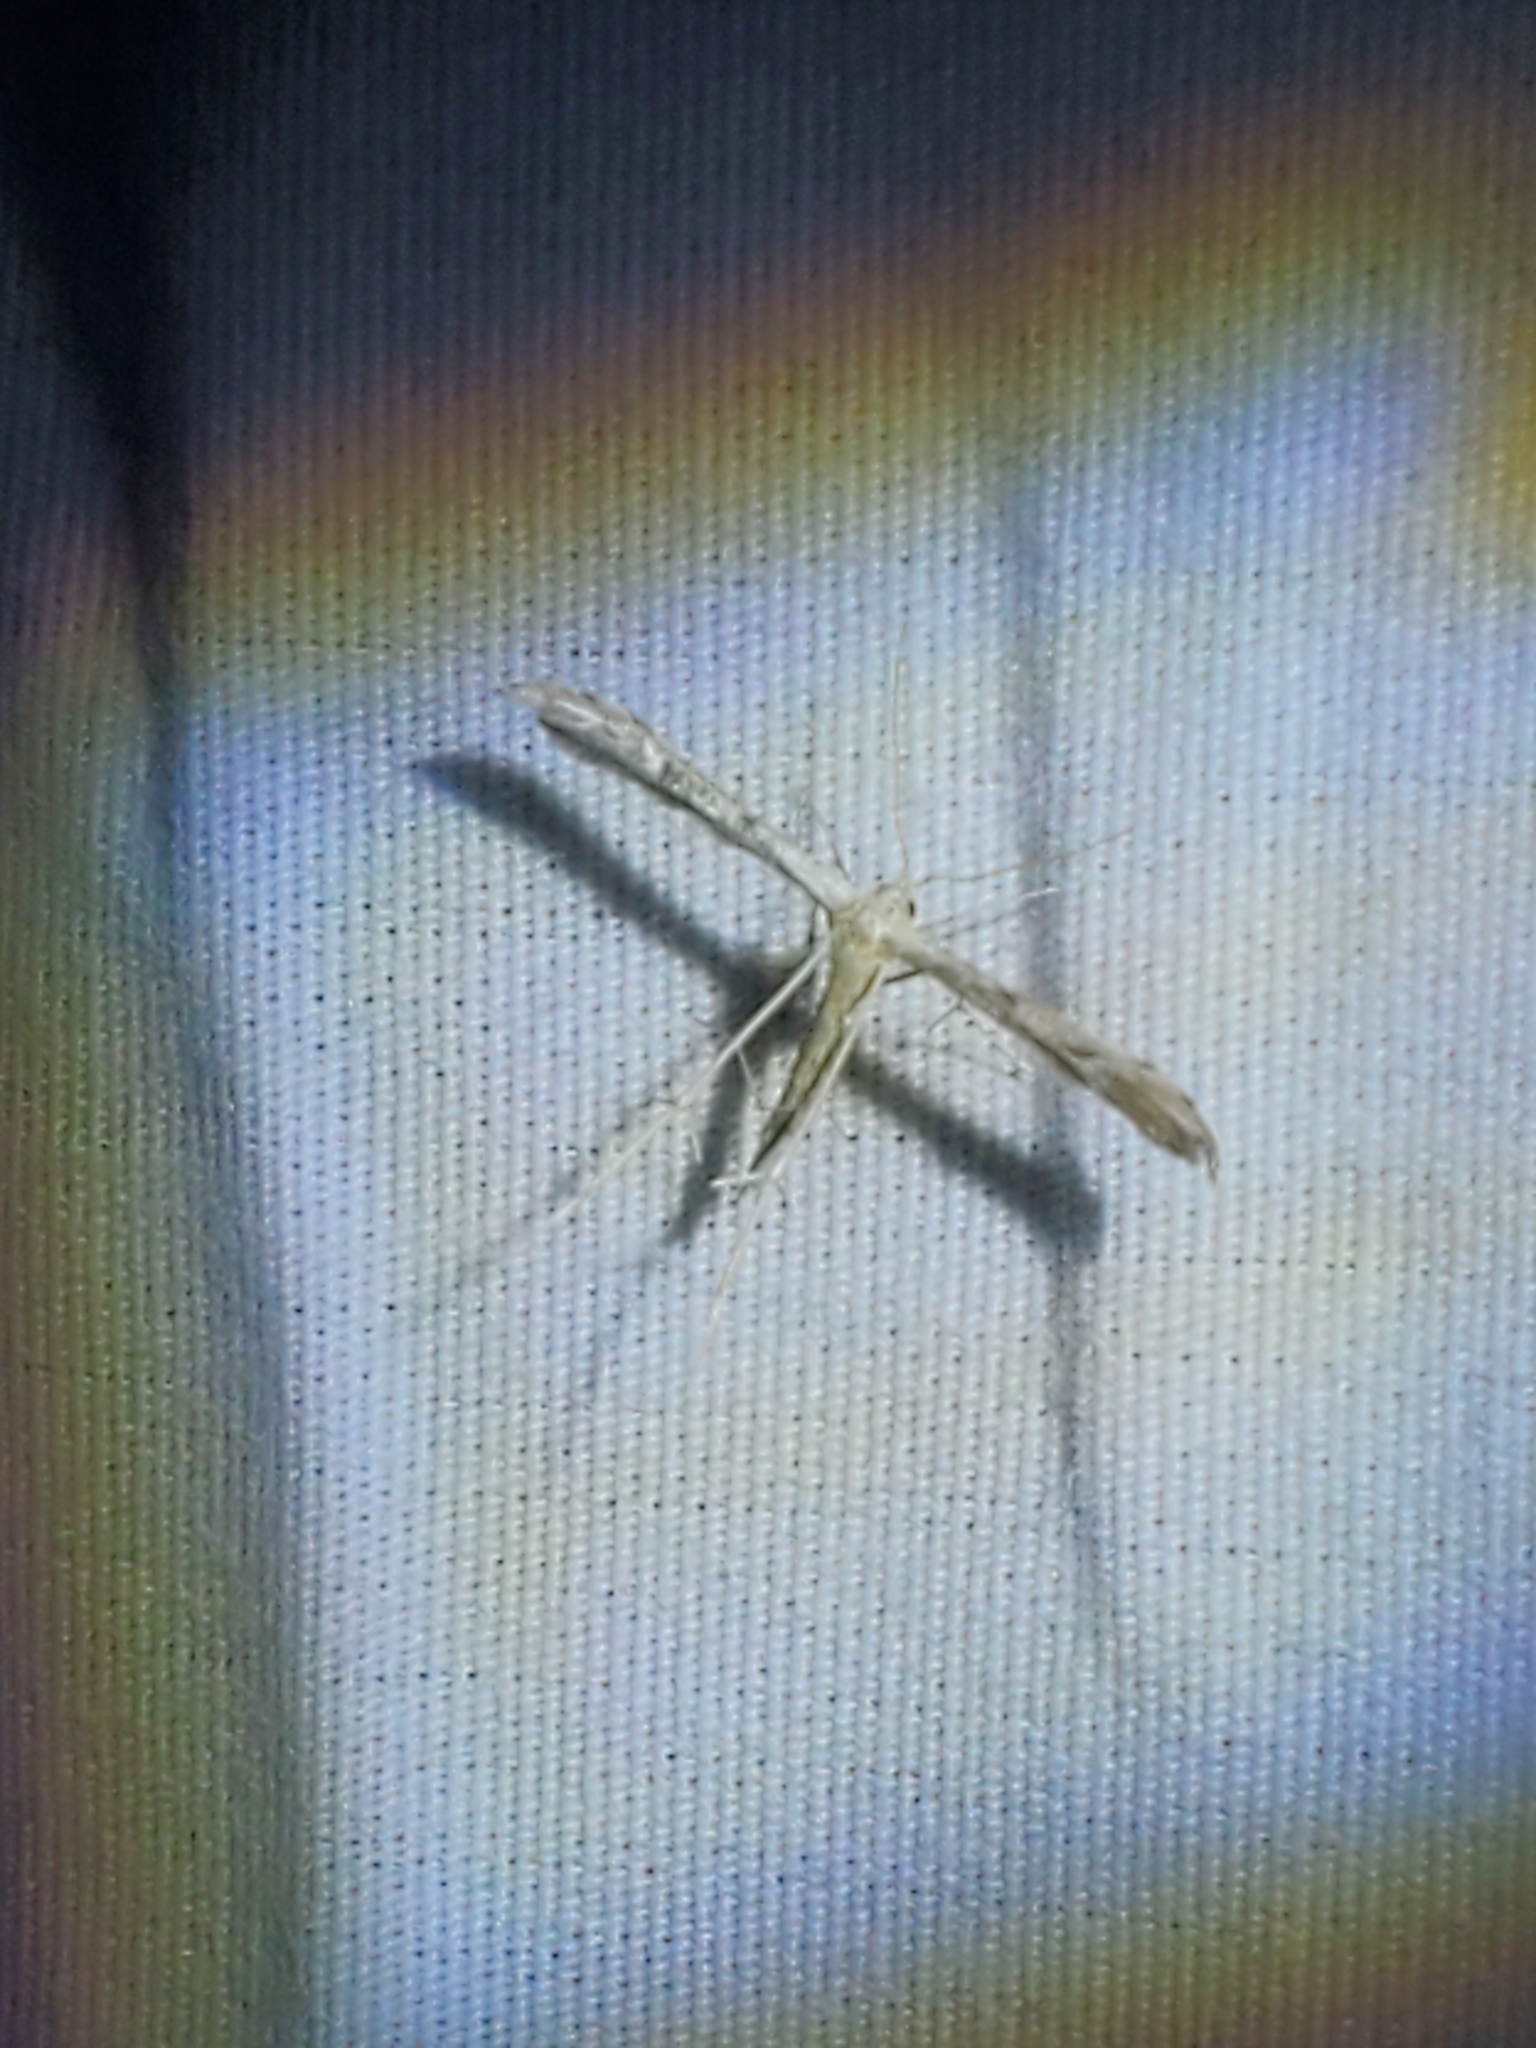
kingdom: Animalia
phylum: Arthropoda
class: Insecta
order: Lepidoptera
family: Pterophoridae
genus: Pselnophorus
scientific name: Pselnophorus belfragei
